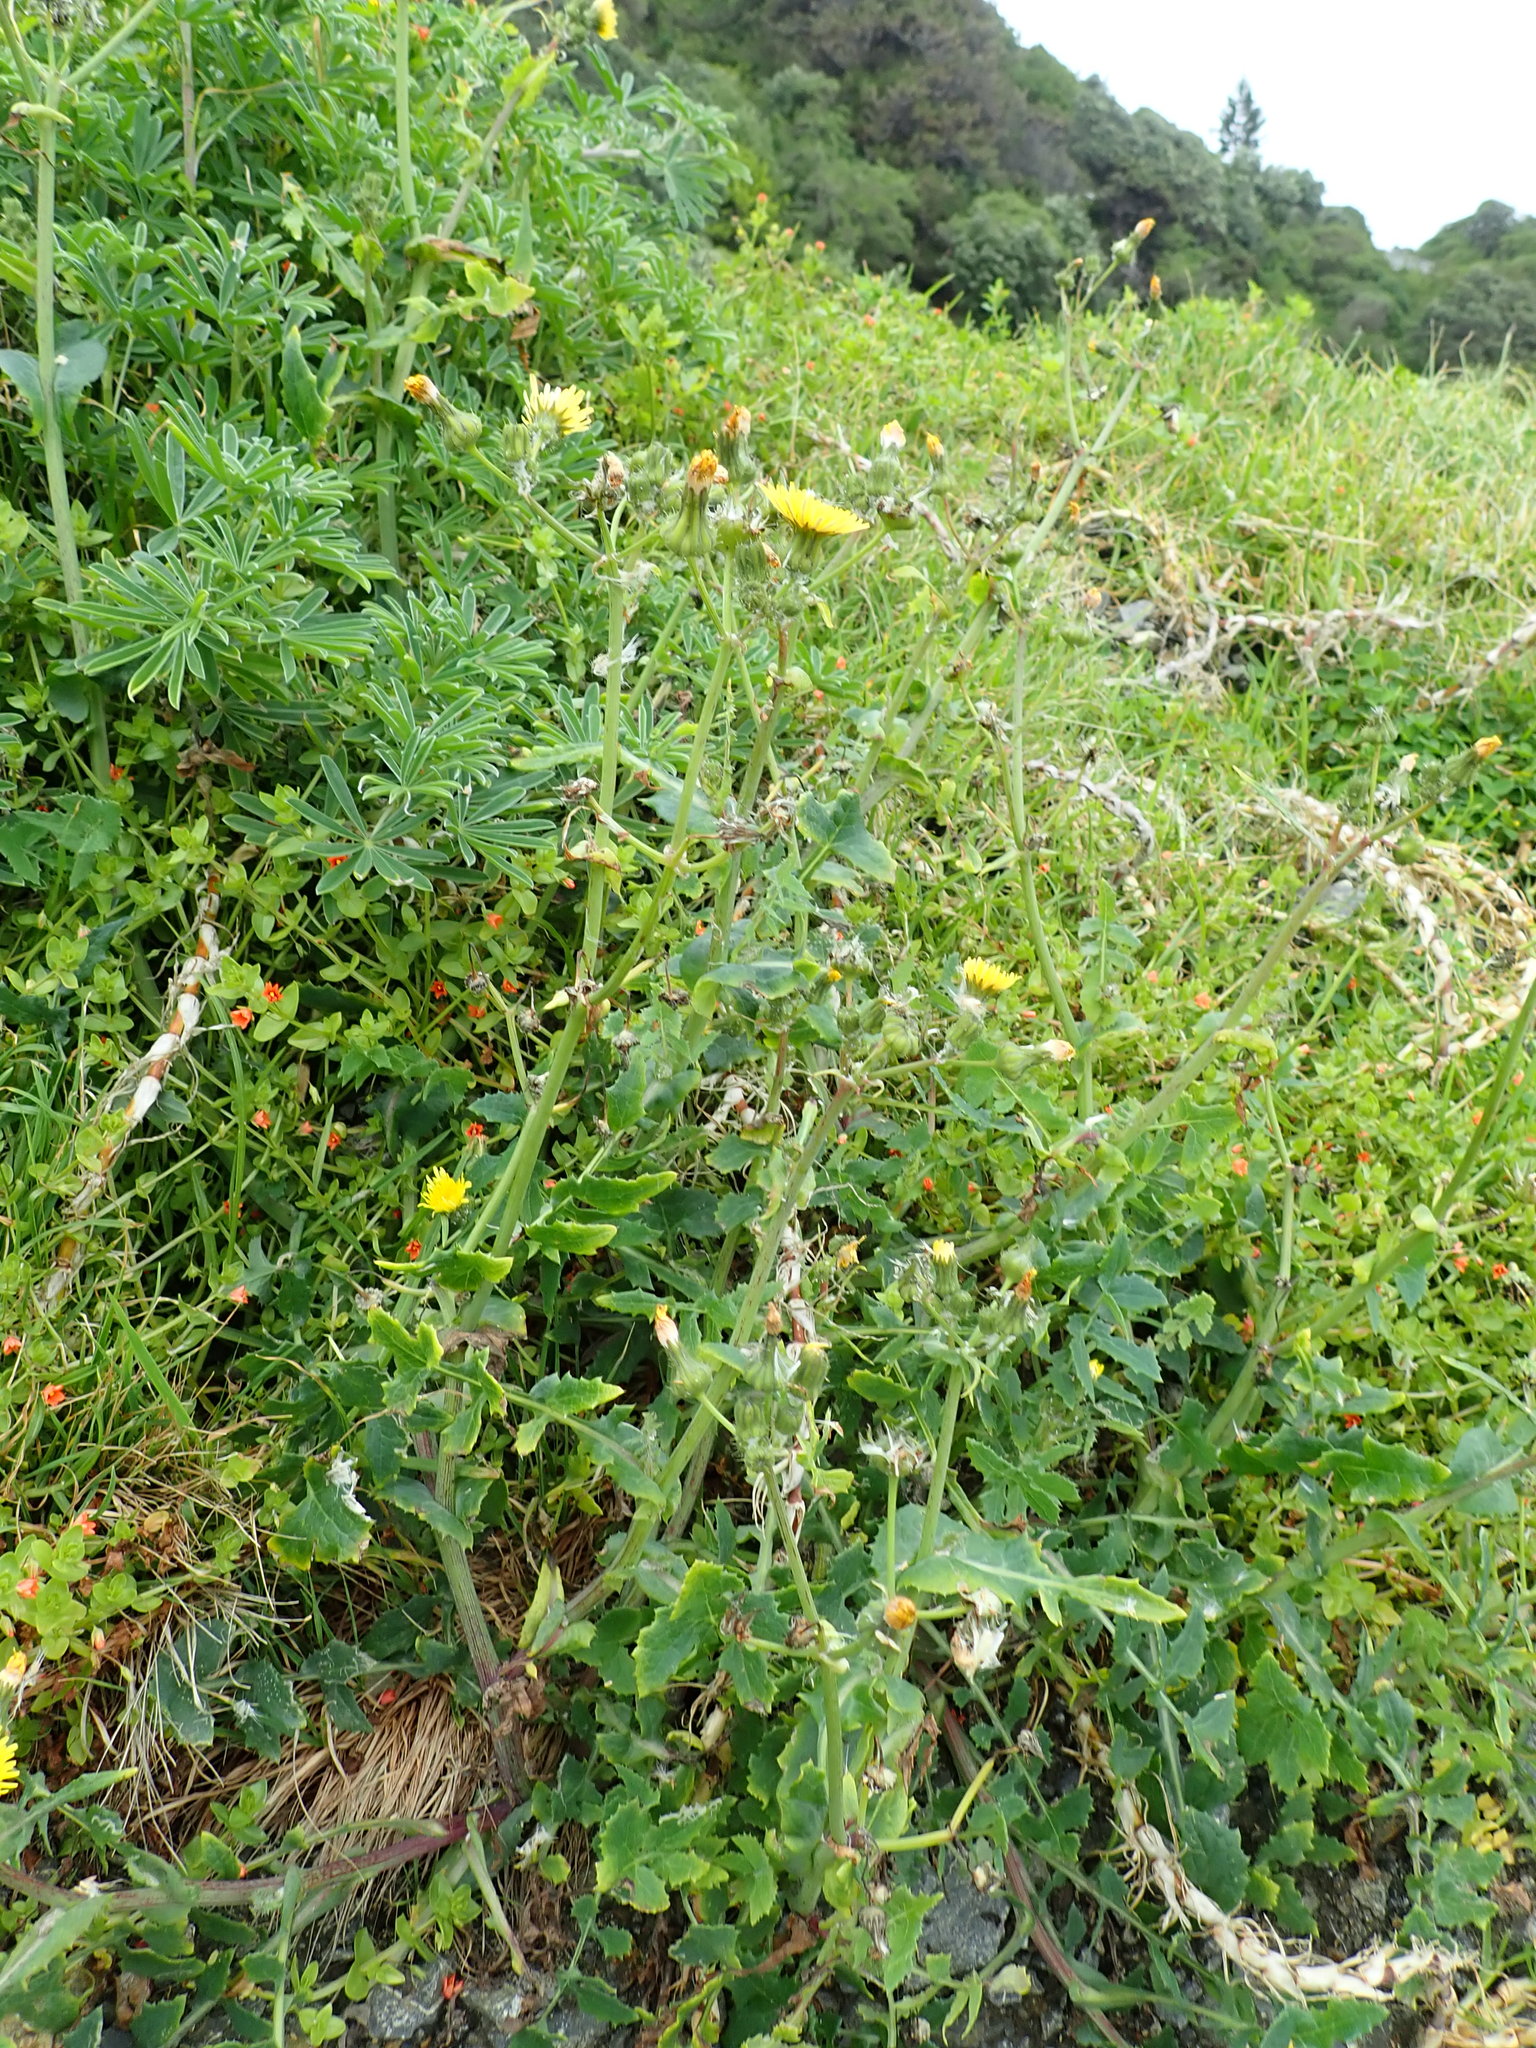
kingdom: Plantae
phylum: Tracheophyta
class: Magnoliopsida
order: Asterales
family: Asteraceae
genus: Sonchus
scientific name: Sonchus oleraceus
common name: Common sowthistle
